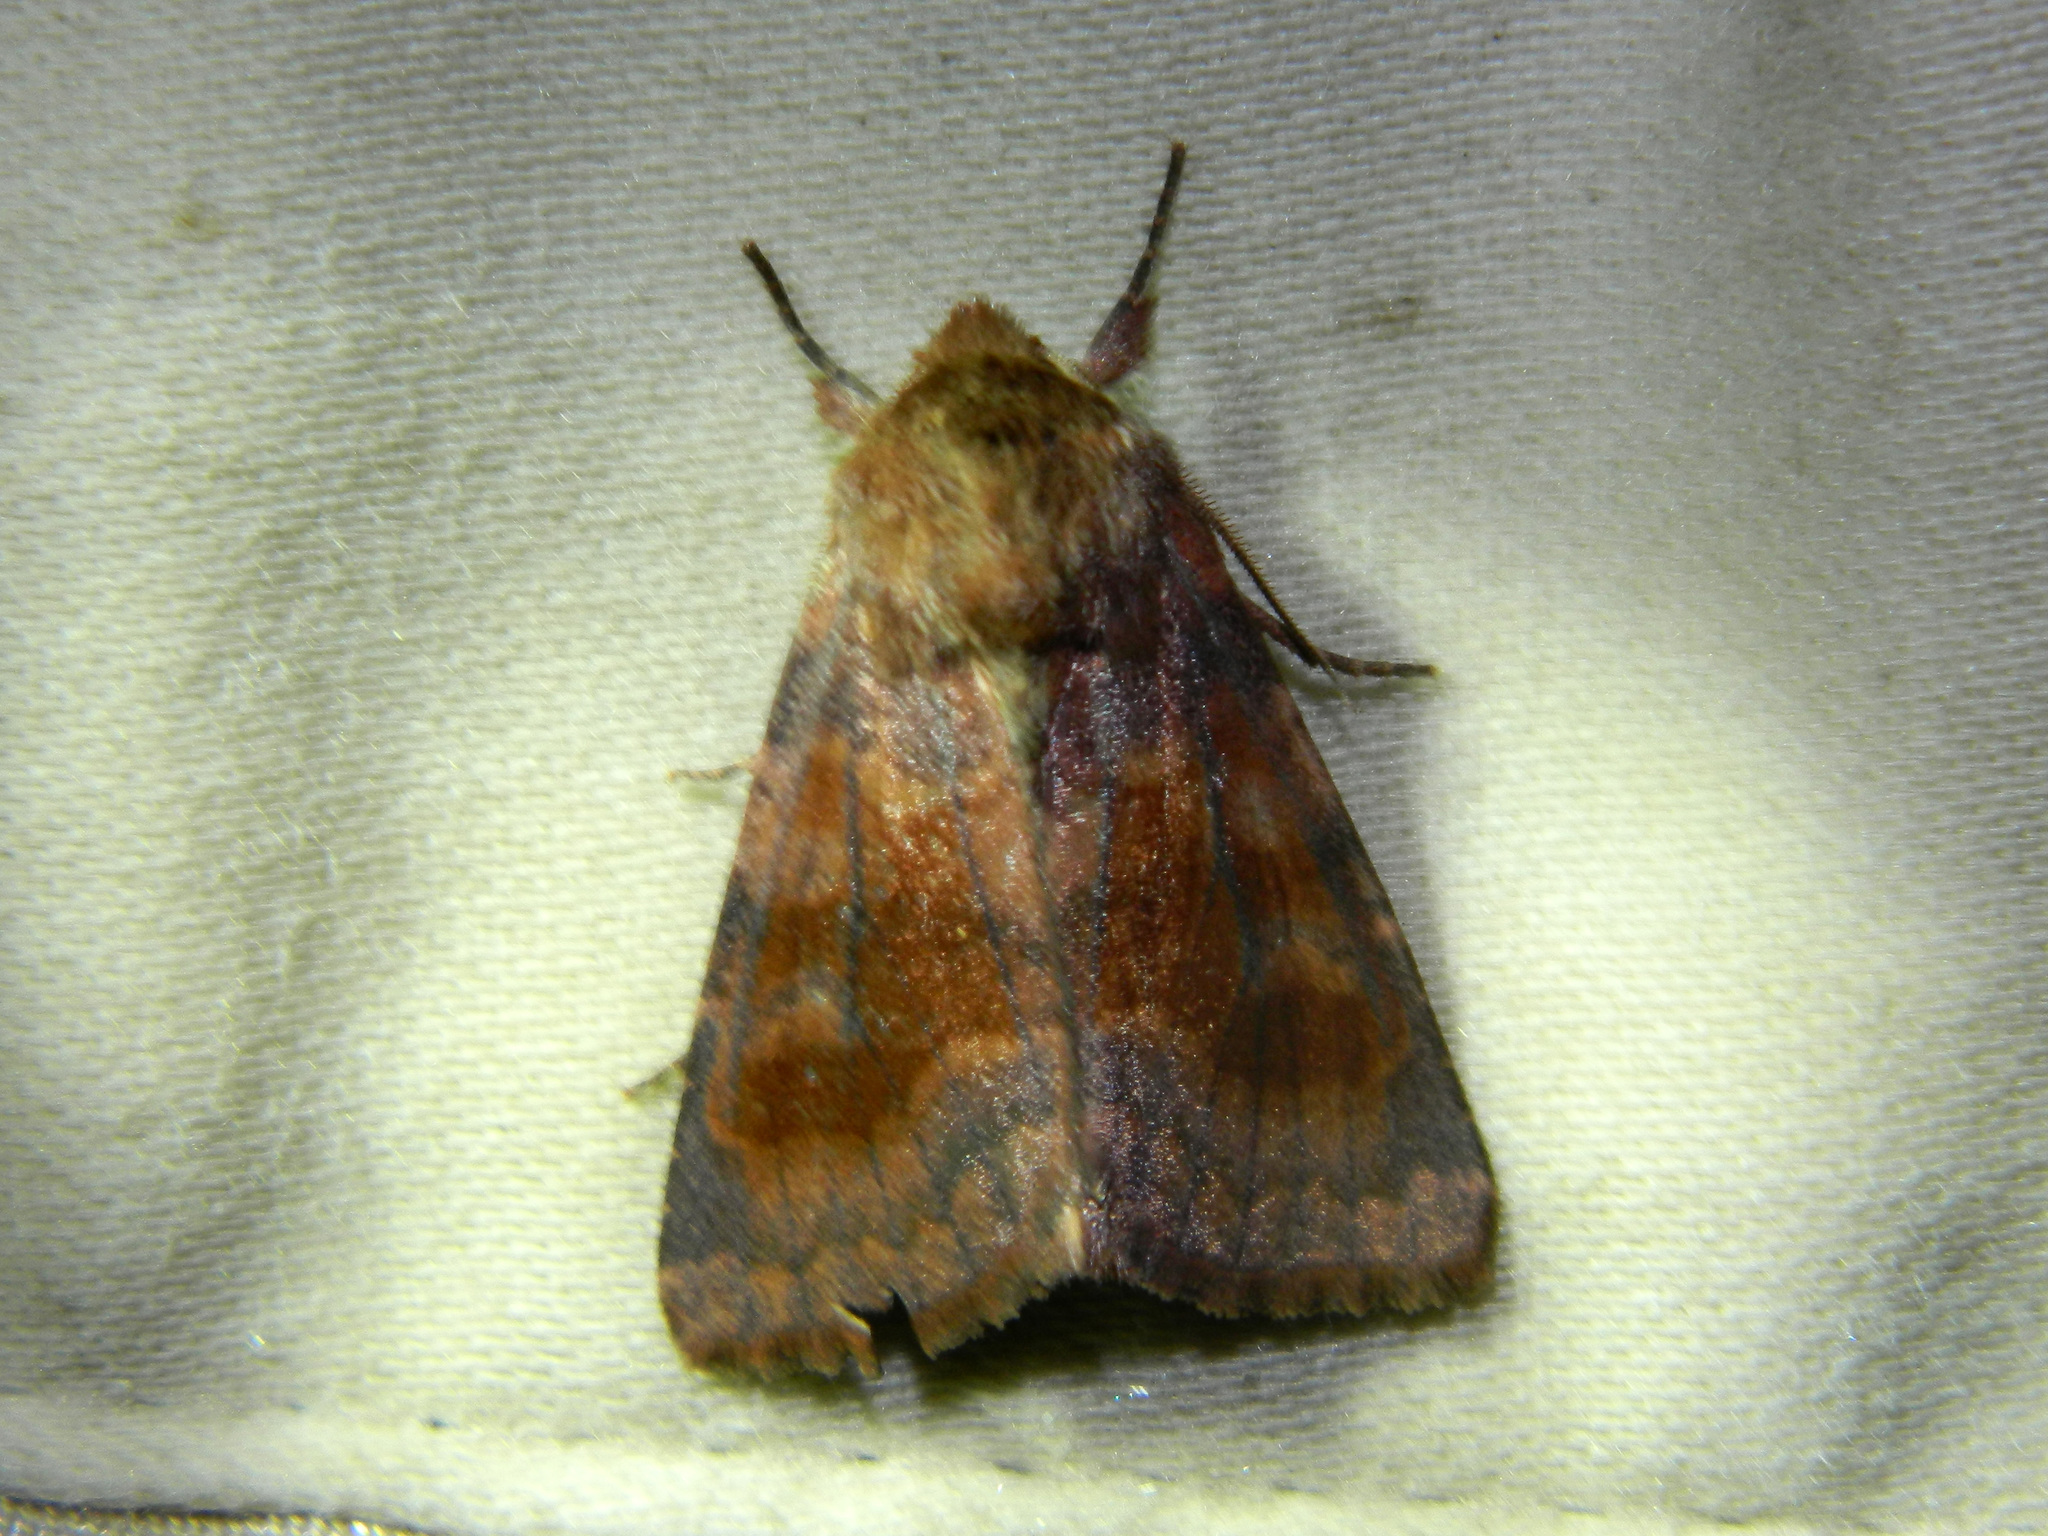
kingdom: Animalia
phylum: Arthropoda
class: Insecta
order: Lepidoptera
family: Noctuidae
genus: Nephelodes
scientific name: Nephelodes minians
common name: Bronzed cutworm
